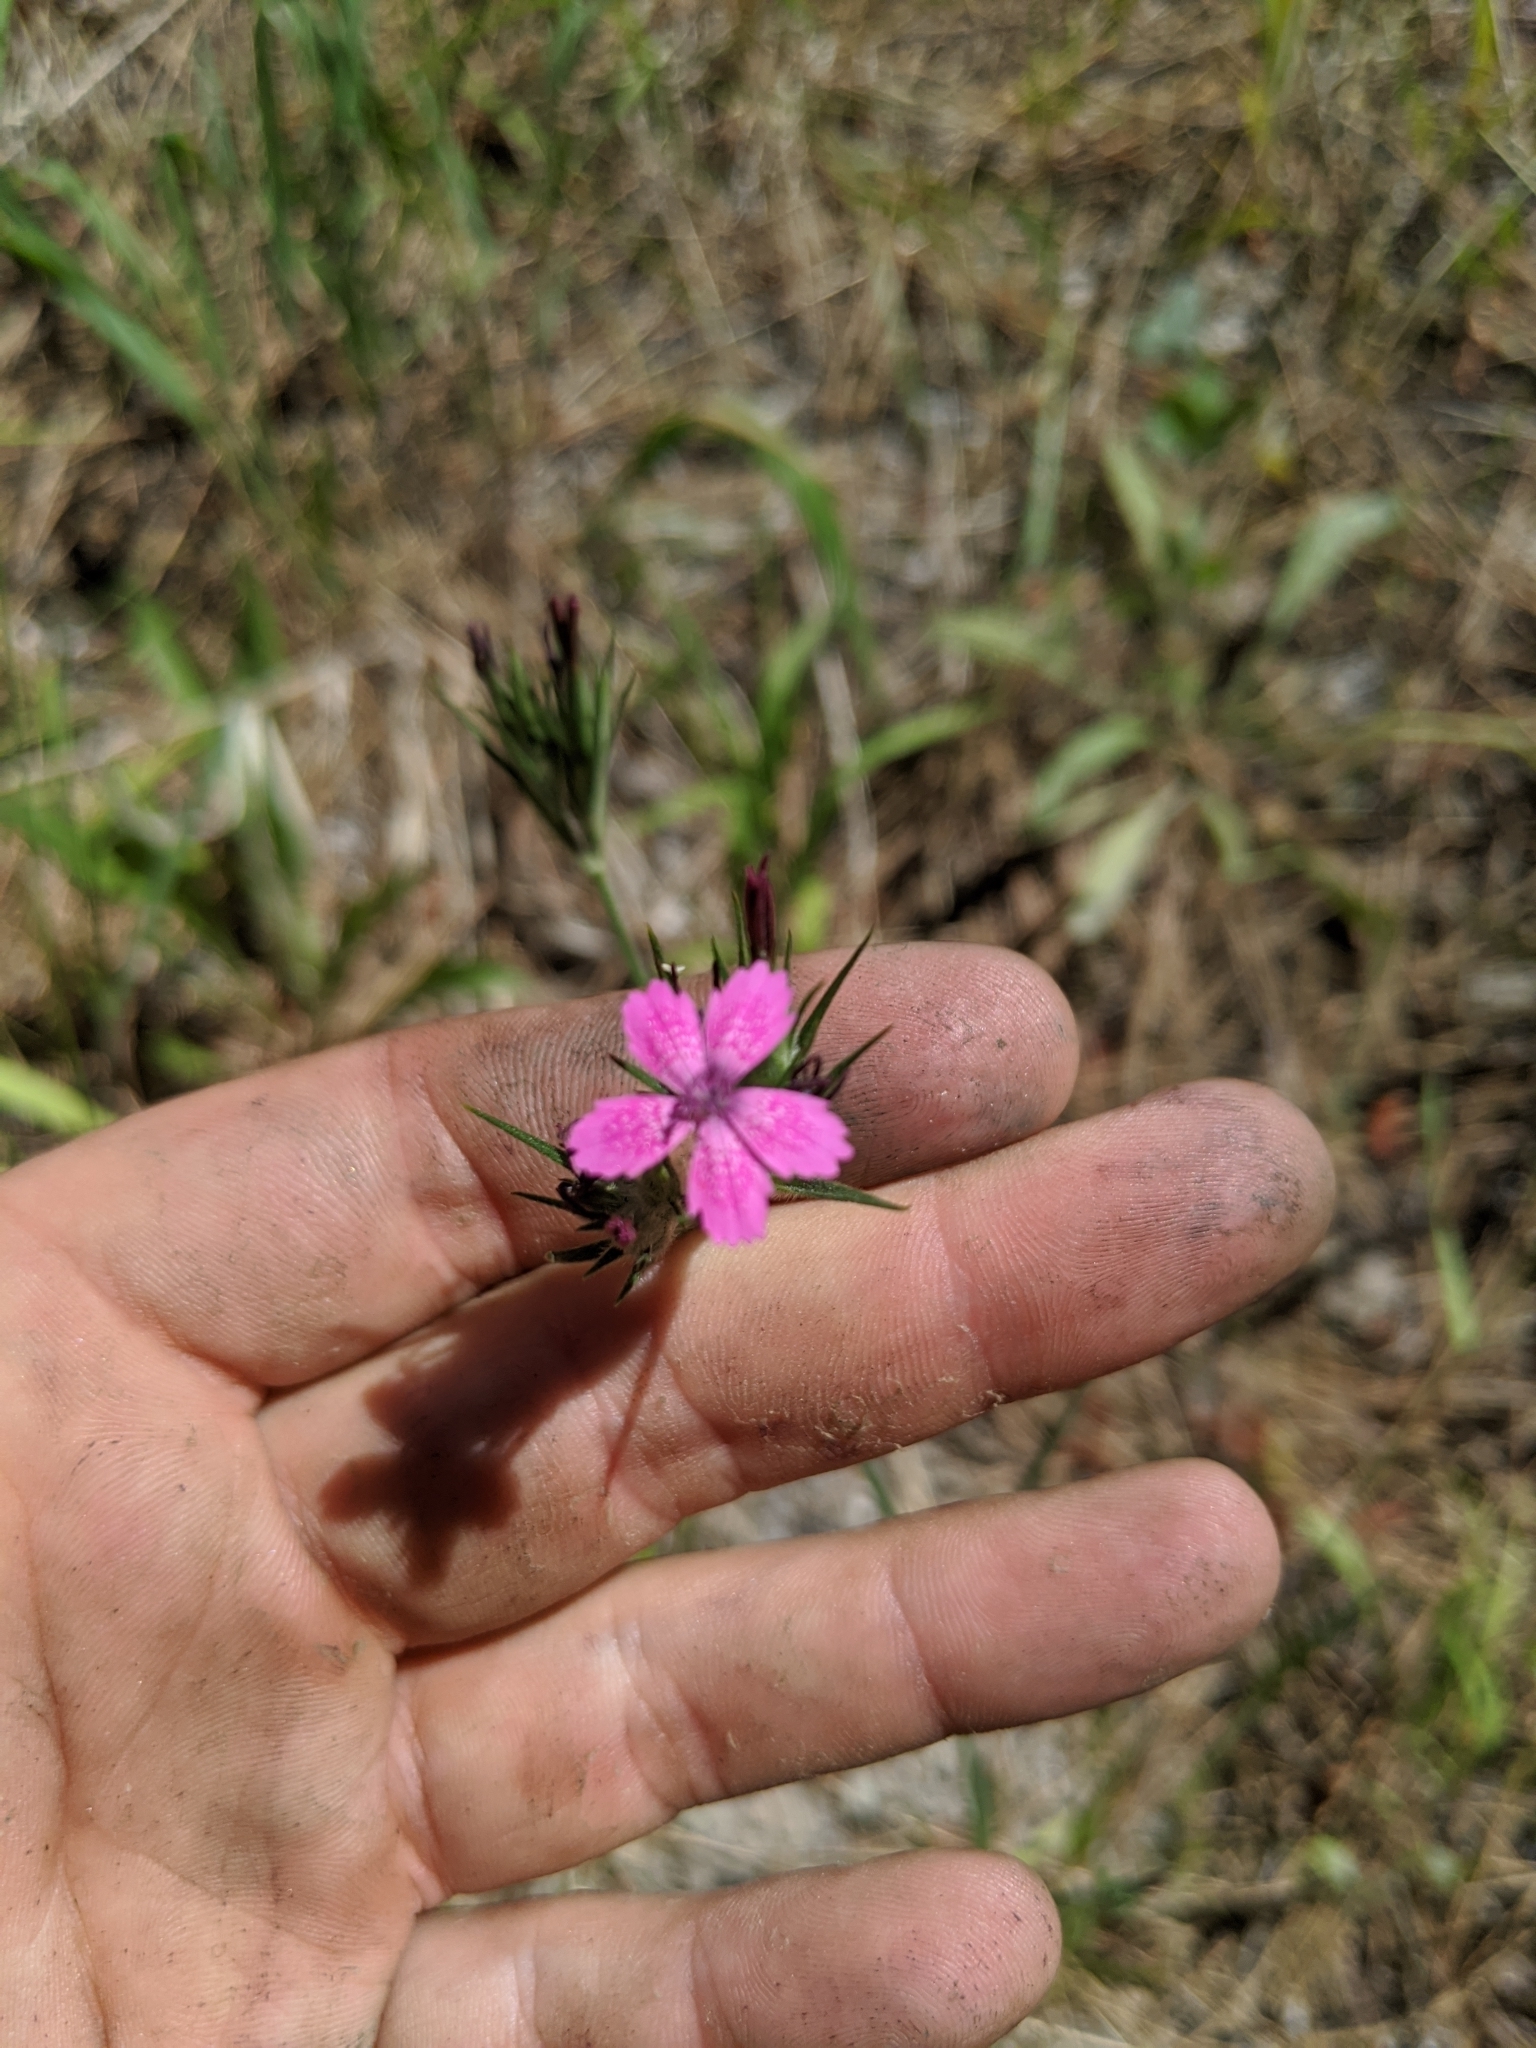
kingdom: Plantae
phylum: Tracheophyta
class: Magnoliopsida
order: Caryophyllales
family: Caryophyllaceae
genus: Dianthus
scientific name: Dianthus armeria
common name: Deptford pink
